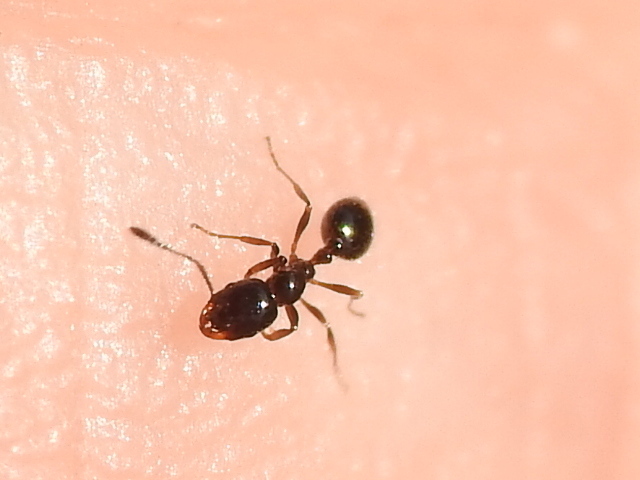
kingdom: Animalia
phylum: Arthropoda
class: Insecta
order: Hymenoptera
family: Formicidae
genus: Monomorium
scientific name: Monomorium minimum
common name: Little black ant
